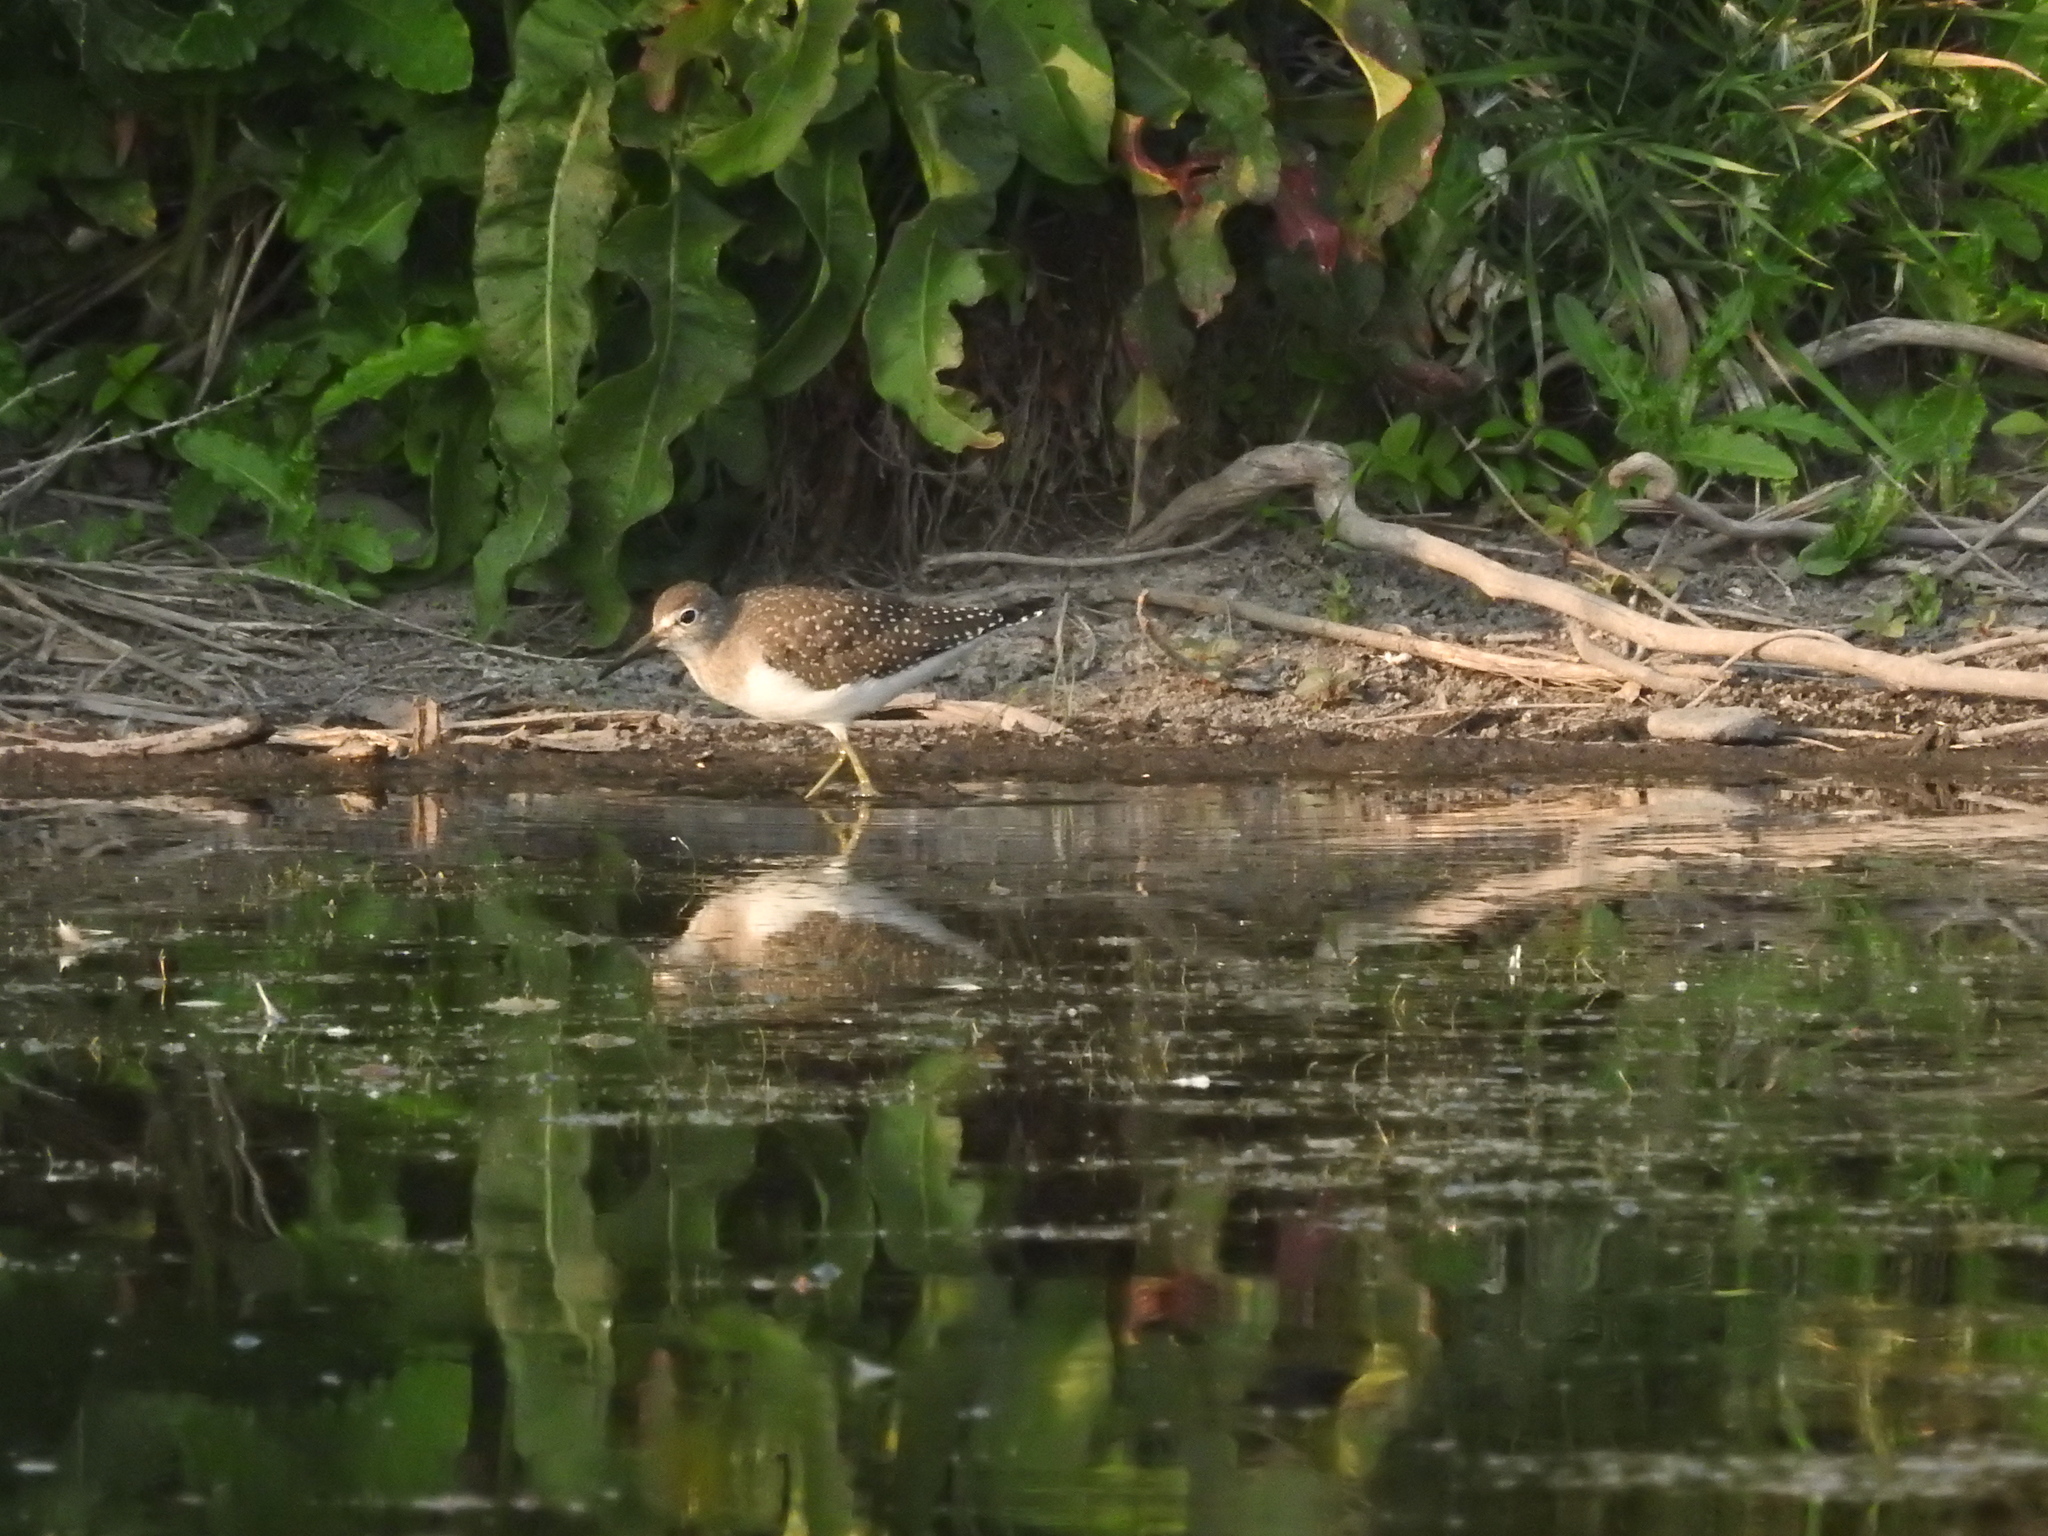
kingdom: Animalia
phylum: Chordata
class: Aves
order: Charadriiformes
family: Scolopacidae
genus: Tringa
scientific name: Tringa solitaria
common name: Solitary sandpiper
